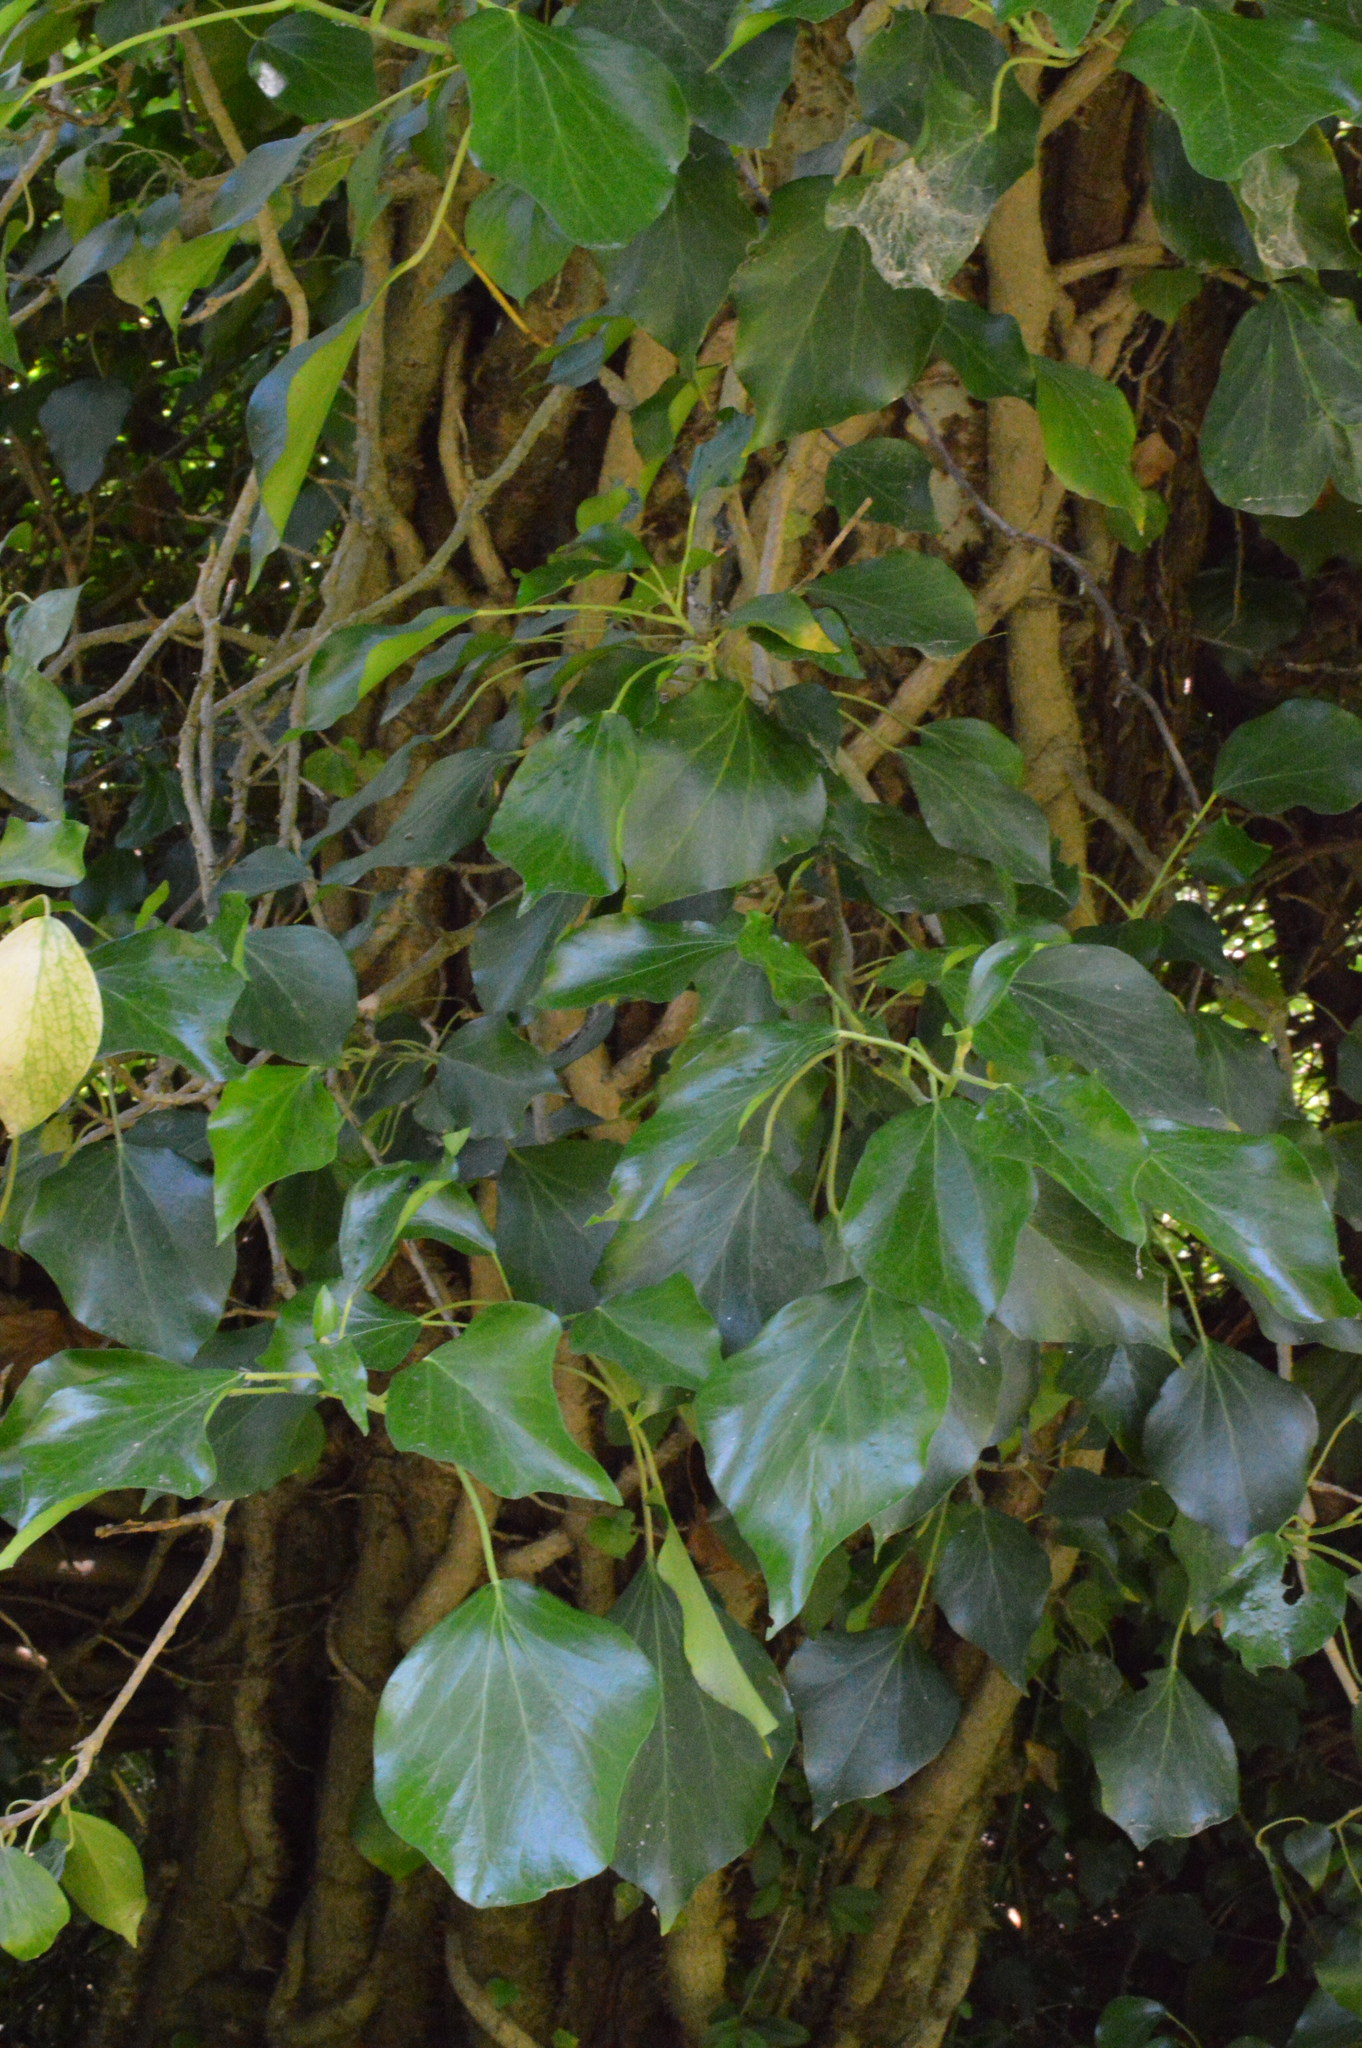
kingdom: Plantae
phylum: Tracheophyta
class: Magnoliopsida
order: Apiales
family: Araliaceae
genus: Hedera
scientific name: Hedera helix
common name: Ivy
